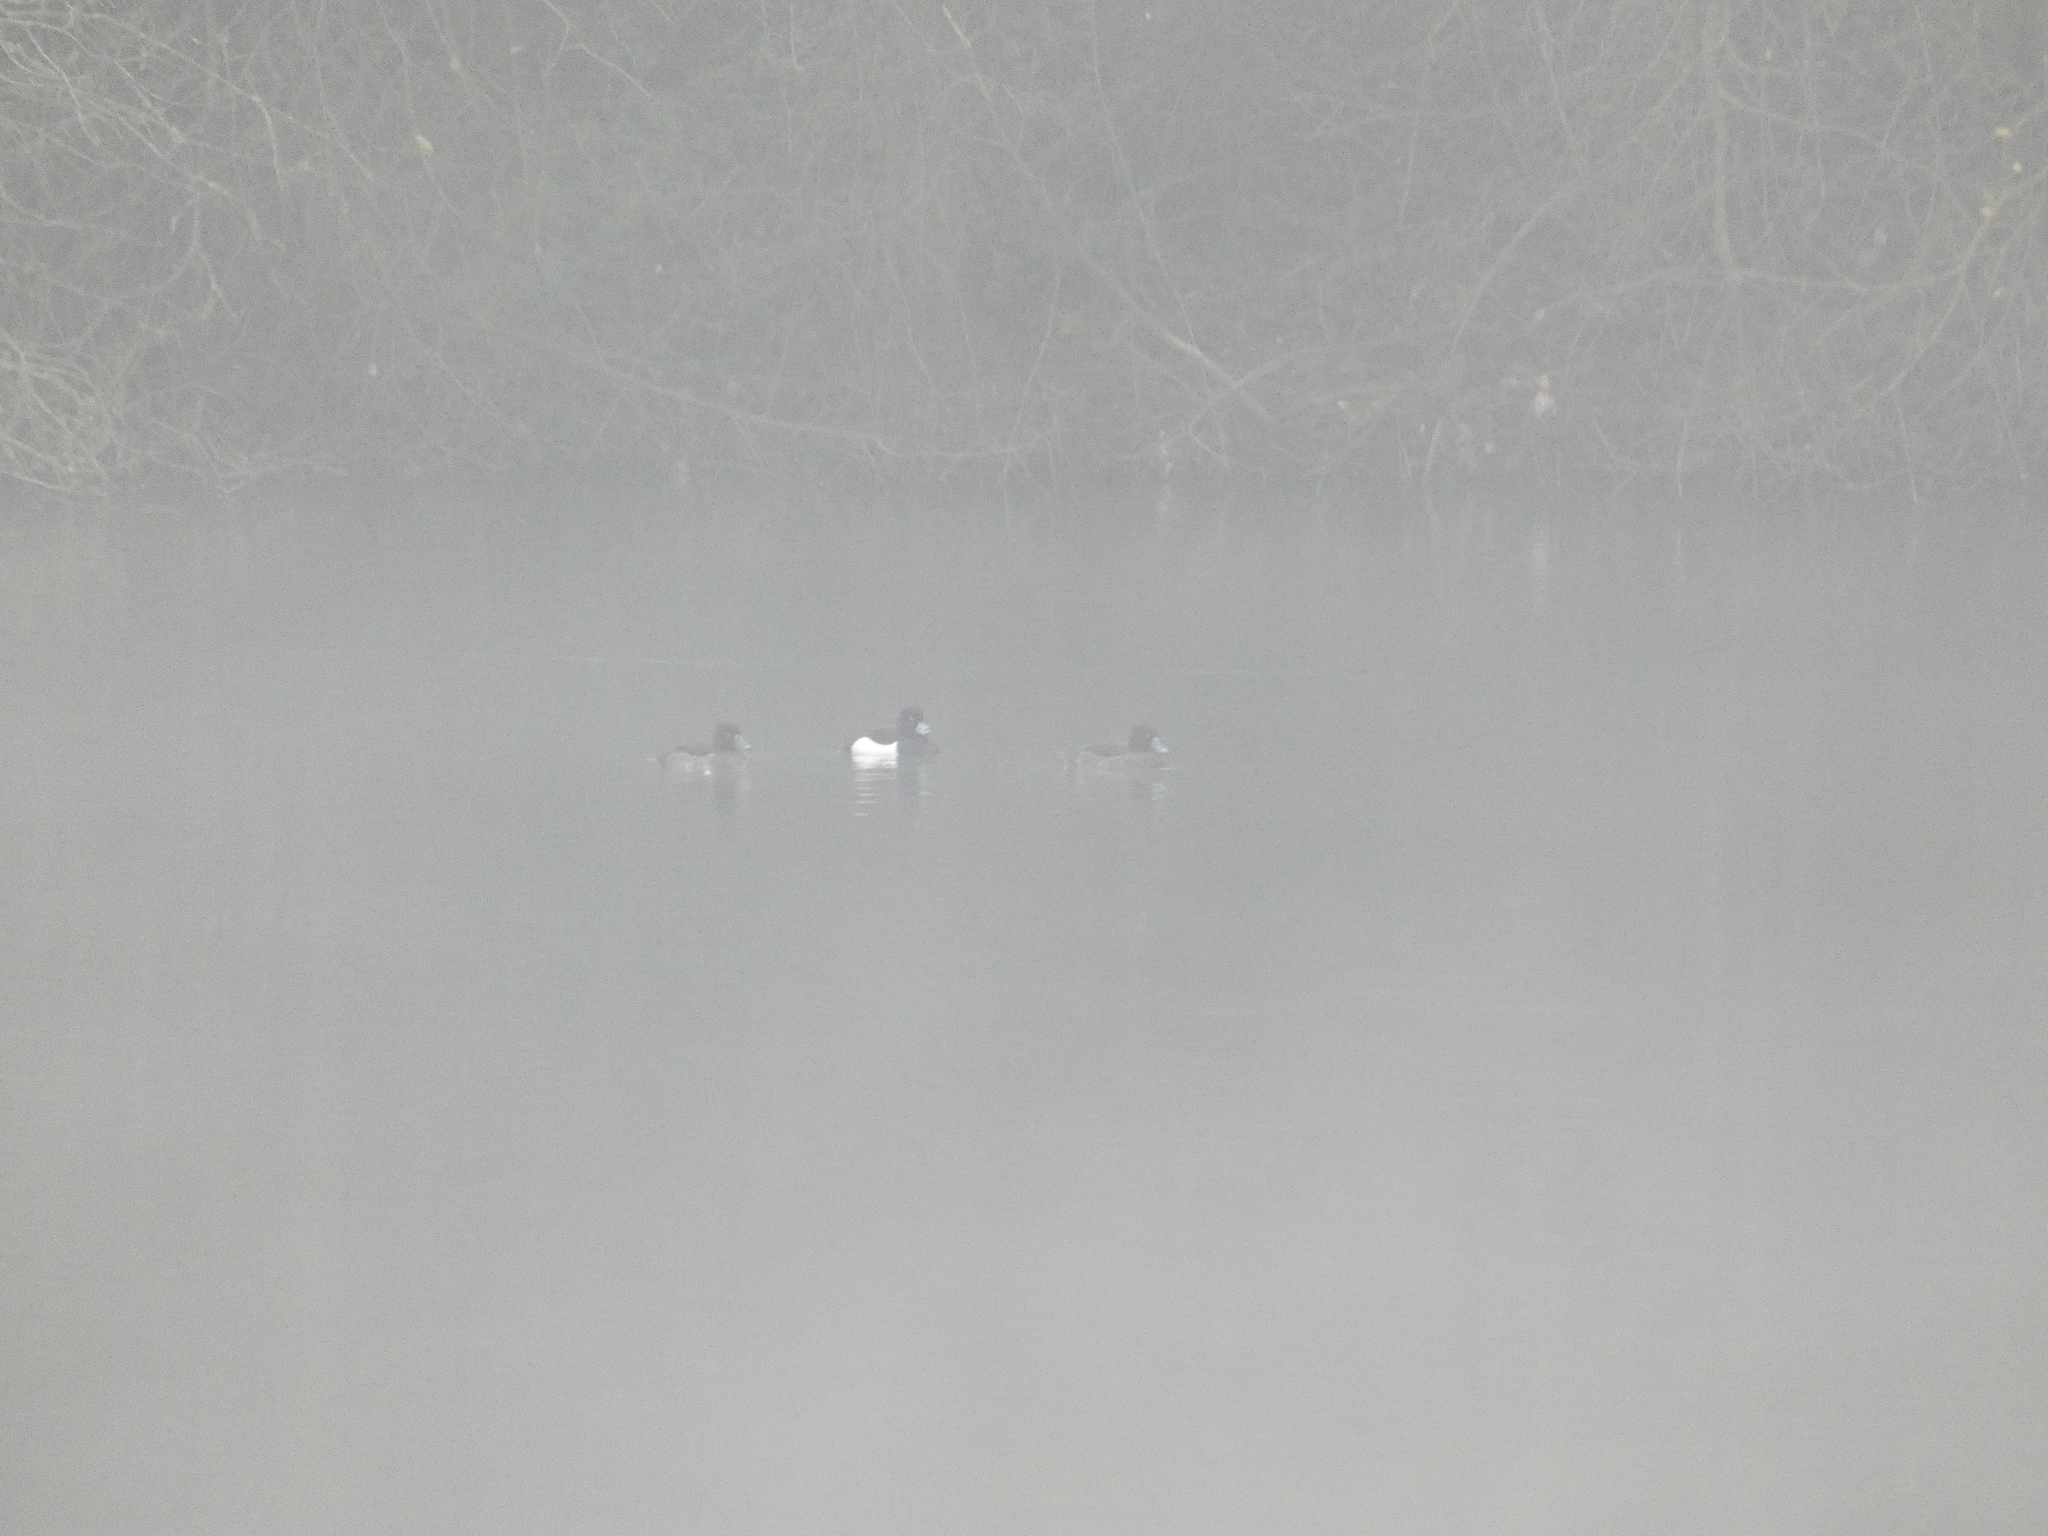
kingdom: Animalia
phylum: Chordata
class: Aves
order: Anseriformes
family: Anatidae
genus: Aythya
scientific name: Aythya fuligula
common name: Tufted duck
